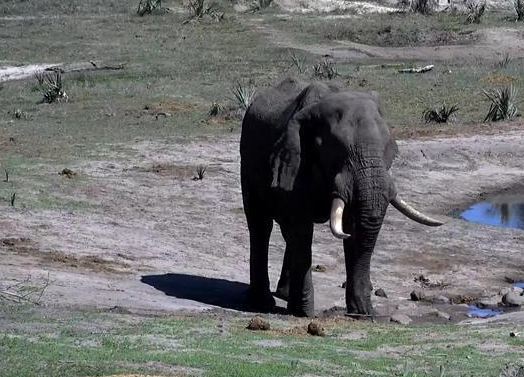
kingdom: Animalia
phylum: Chordata
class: Mammalia
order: Proboscidea
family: Elephantidae
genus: Loxodonta
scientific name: Loxodonta africana
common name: African elephant
